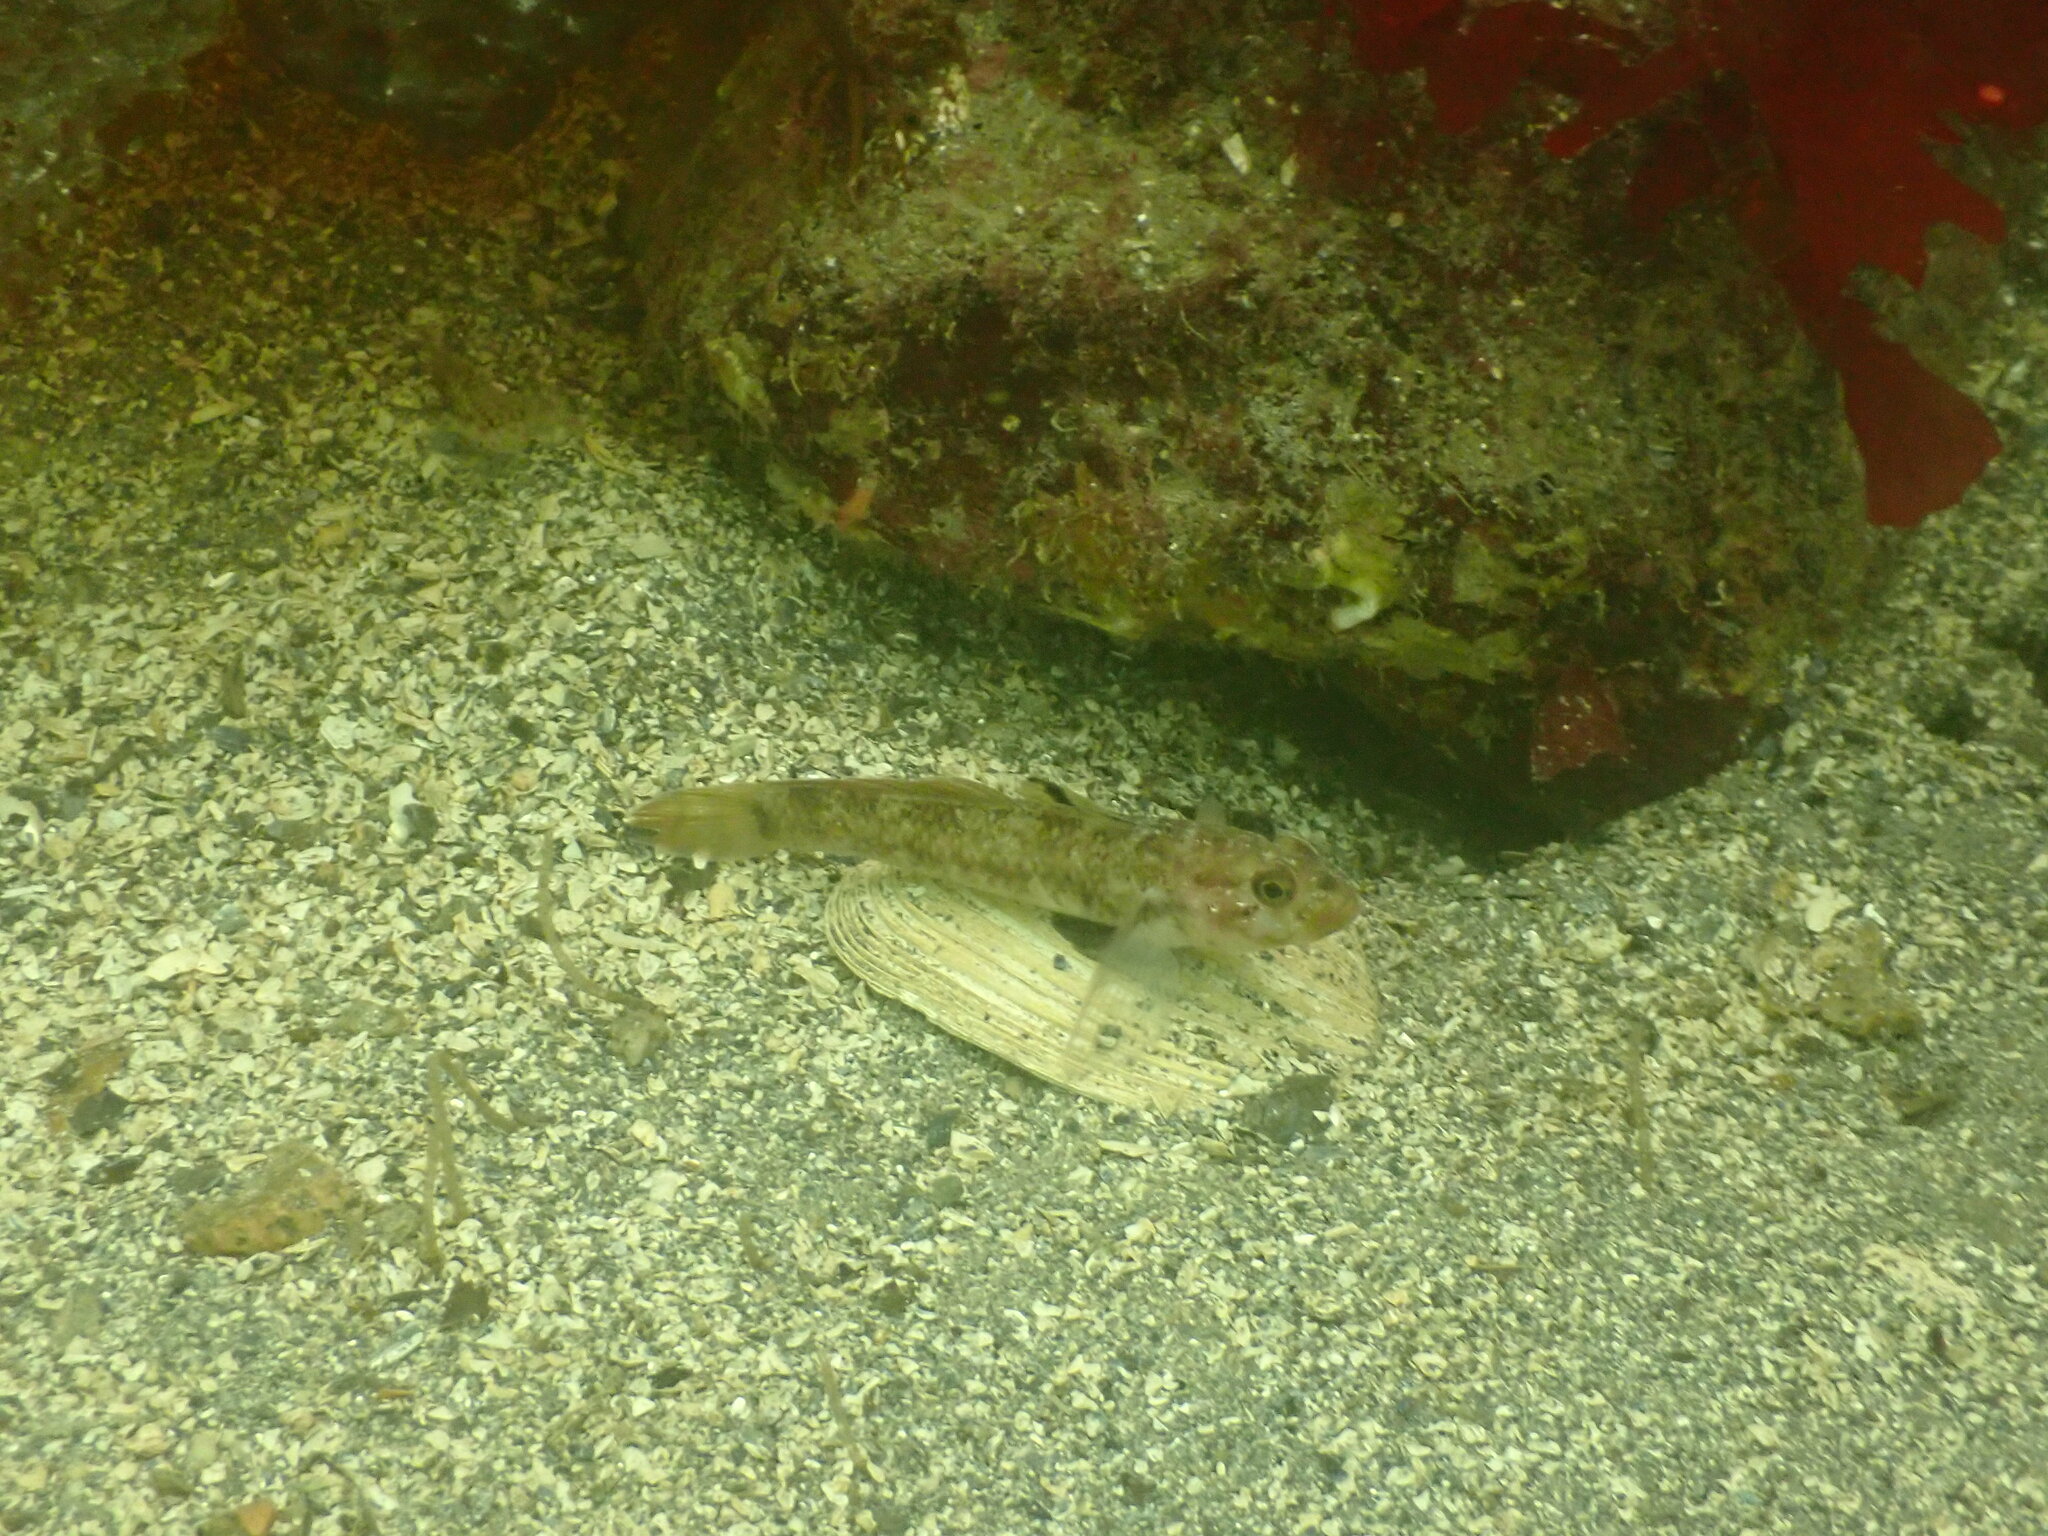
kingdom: Animalia
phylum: Chordata
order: Perciformes
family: Gobiidae
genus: Rhinogobiops
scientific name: Rhinogobiops nicholsii
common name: Blackeye goby
